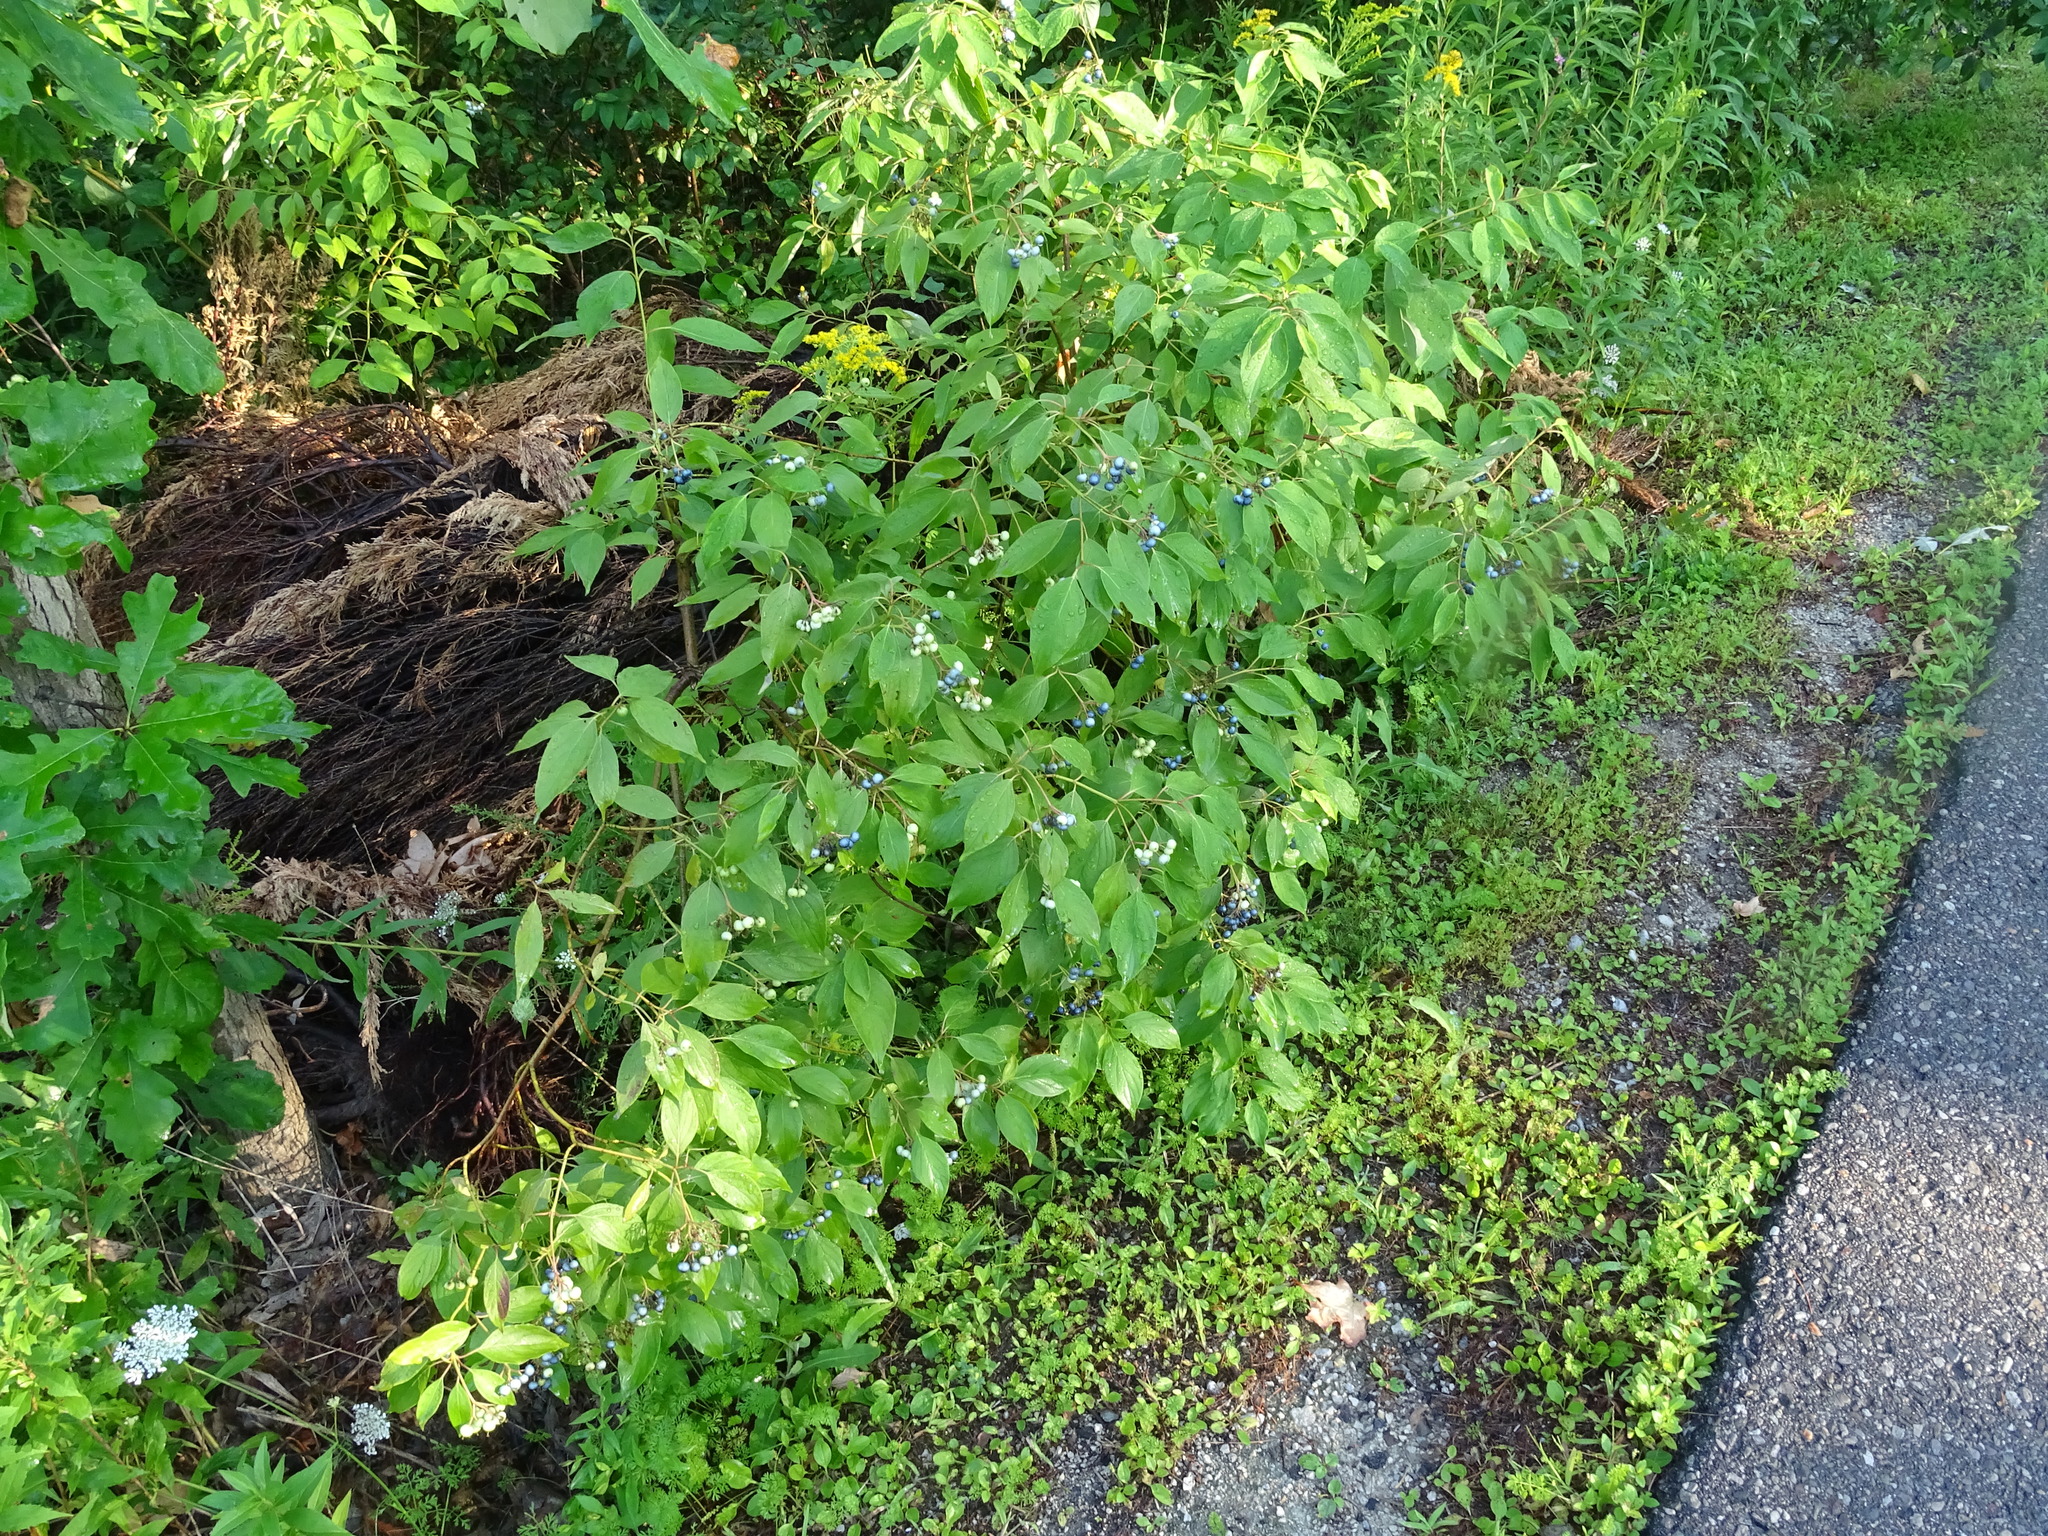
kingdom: Plantae
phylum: Tracheophyta
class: Magnoliopsida
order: Cornales
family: Cornaceae
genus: Cornus
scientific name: Cornus amomum
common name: Silky dogwood
